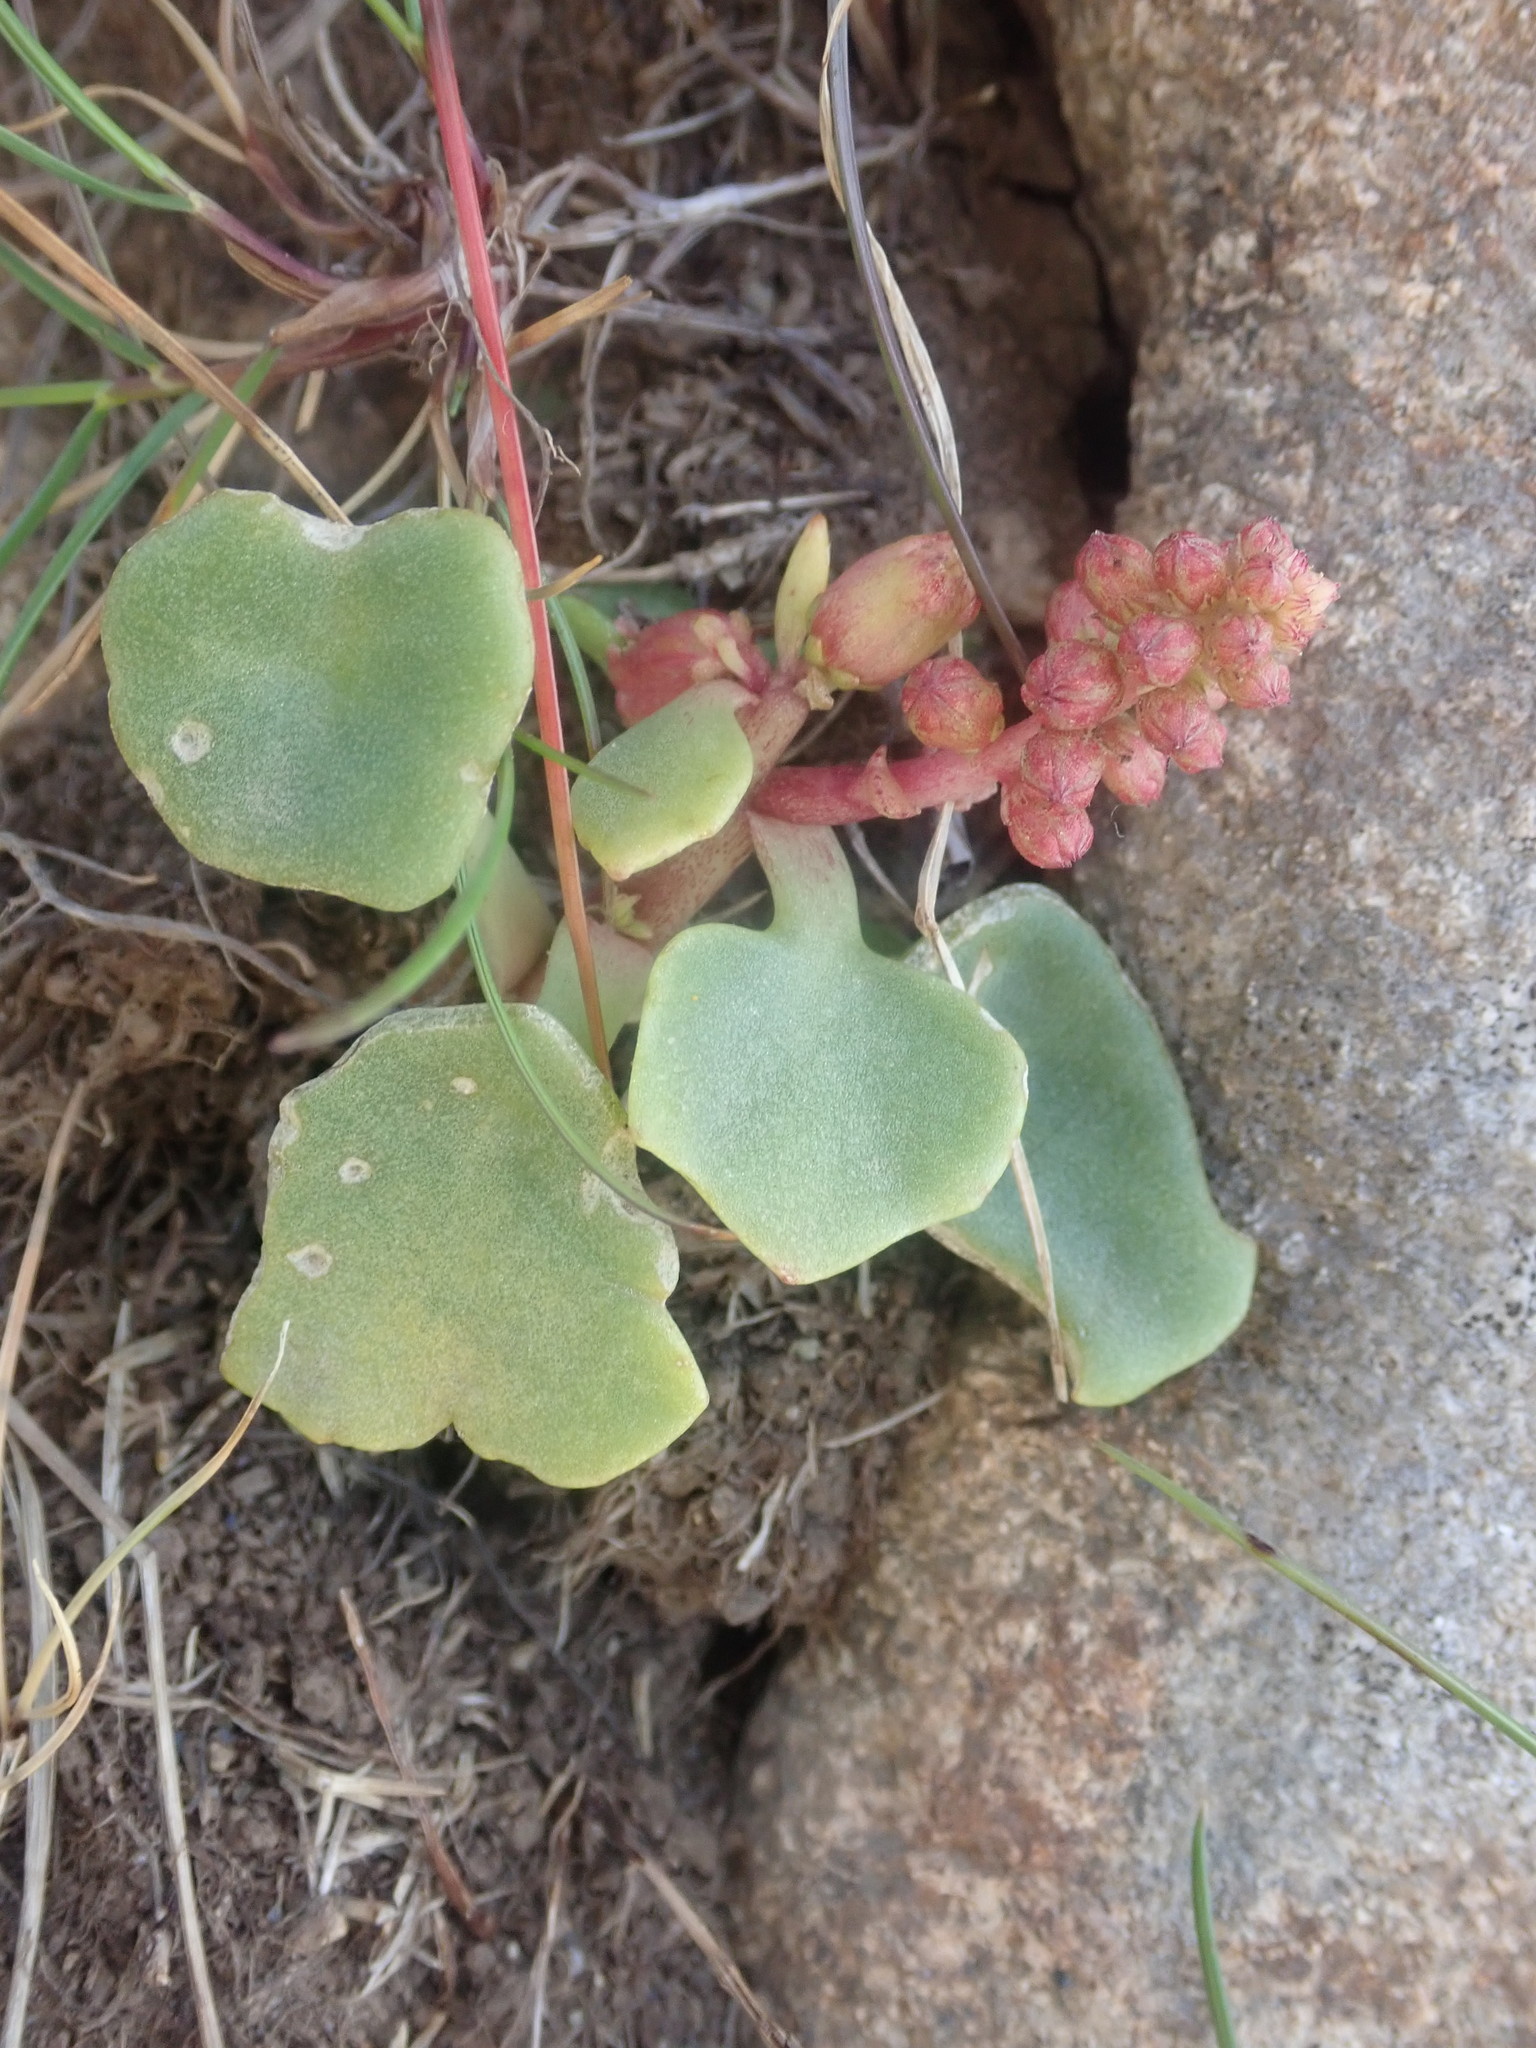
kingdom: Plantae
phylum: Tracheophyta
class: Magnoliopsida
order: Saxifragales
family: Crassulaceae
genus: Umbilicus
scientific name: Umbilicus rupestris
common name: Navelwort
